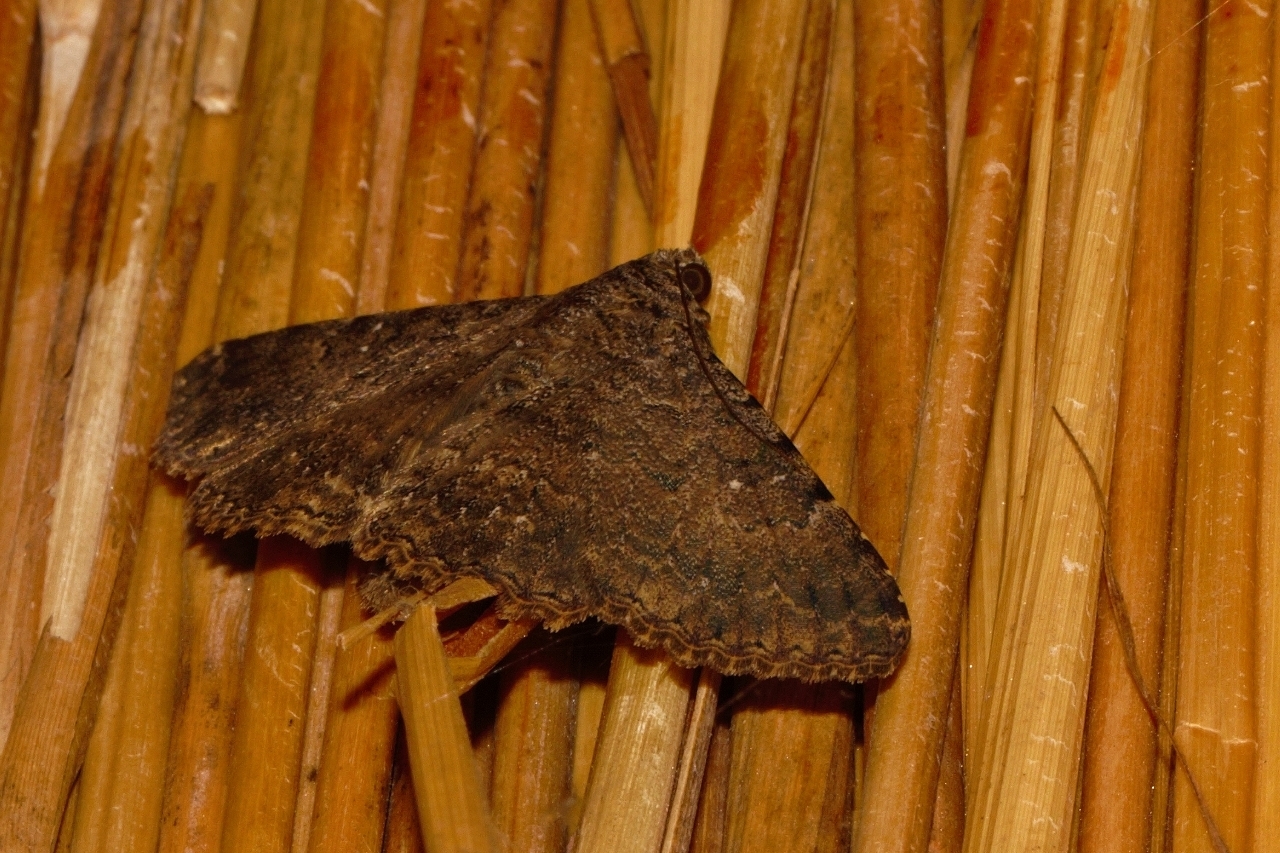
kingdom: Animalia
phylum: Arthropoda
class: Insecta
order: Lepidoptera
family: Erebidae
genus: Polydesma
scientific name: Polydesma umbricola
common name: Monkeypod moth
